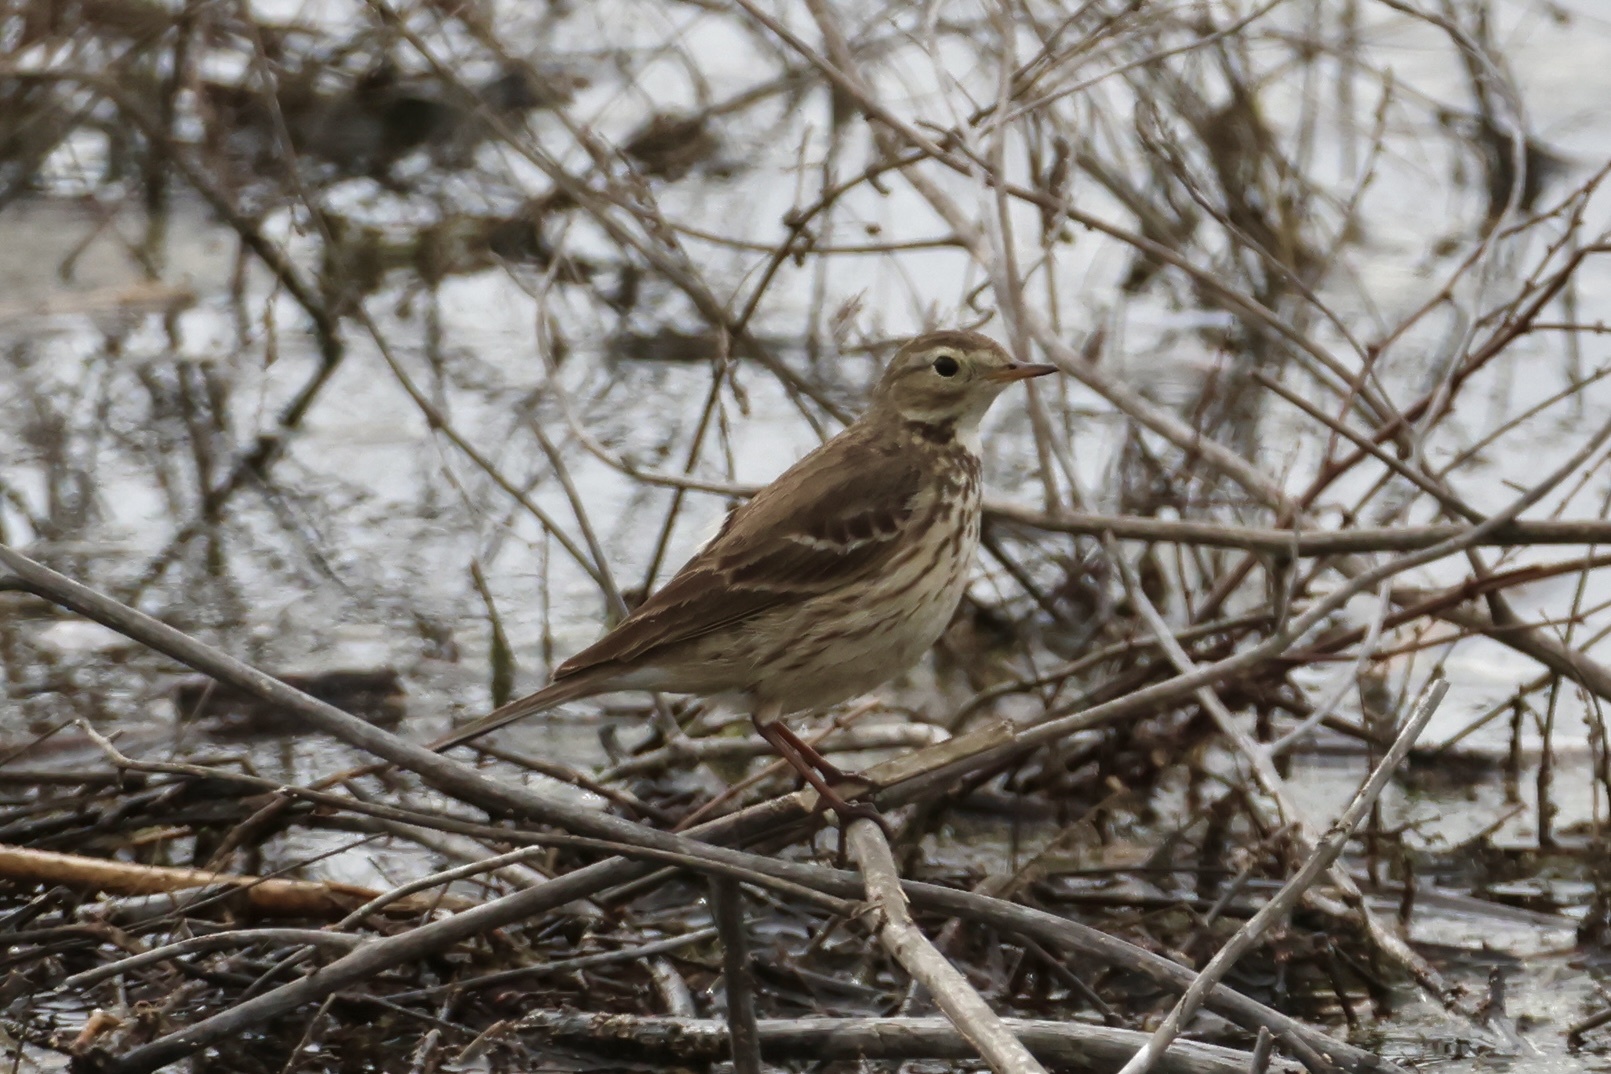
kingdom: Animalia
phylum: Chordata
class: Aves
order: Passeriformes
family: Motacillidae
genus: Anthus
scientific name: Anthus rubescens
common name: Buff-bellied pipit
